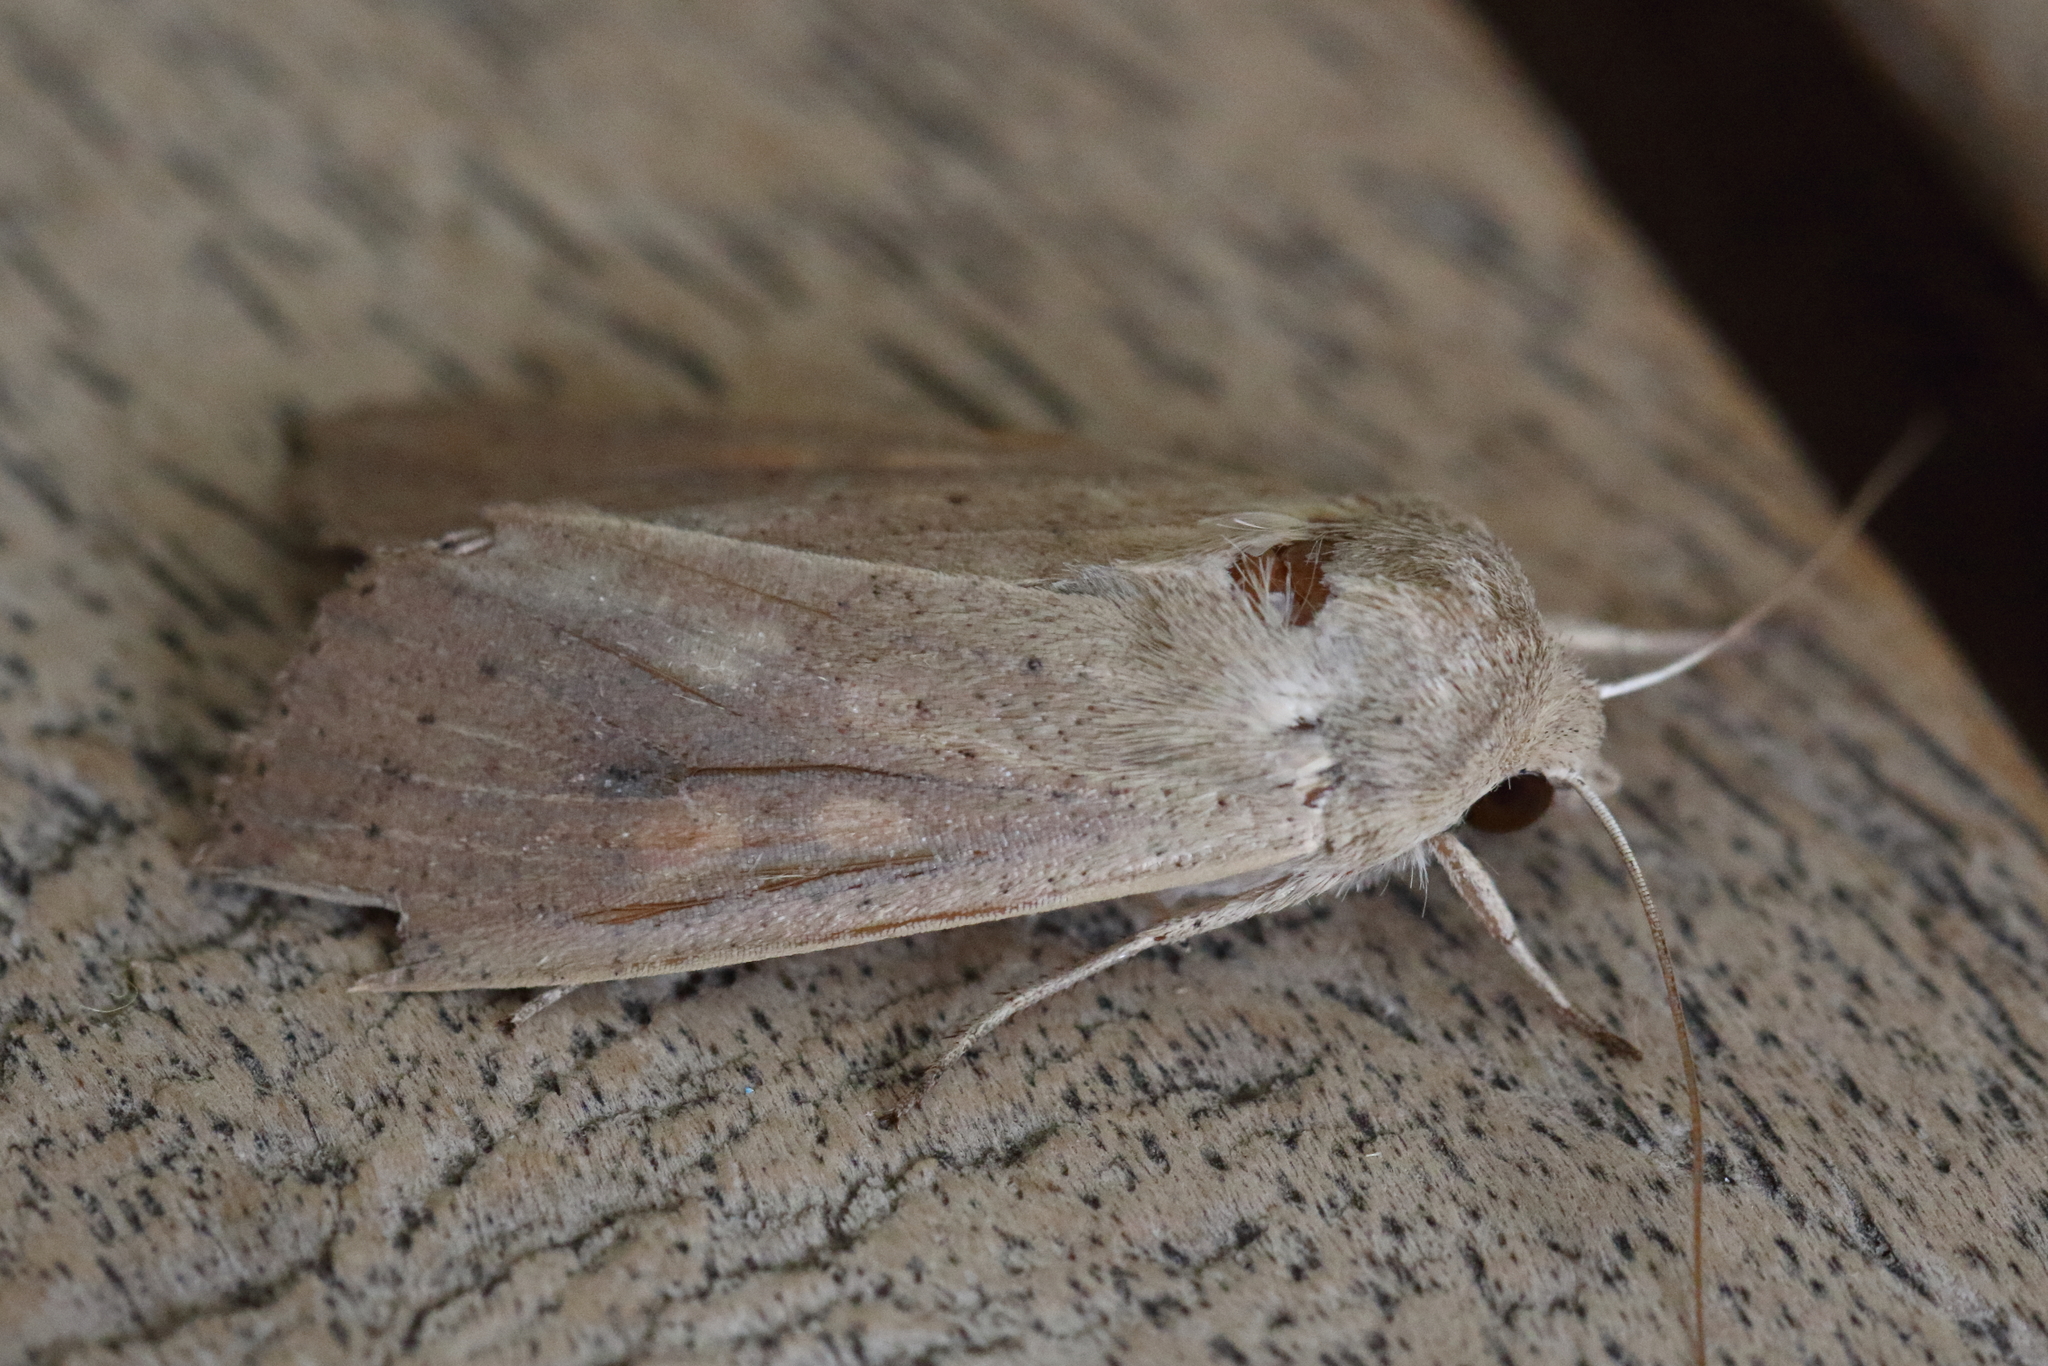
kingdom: Animalia
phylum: Arthropoda
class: Insecta
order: Lepidoptera
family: Noctuidae
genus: Mythimna
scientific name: Mythimna convecta
